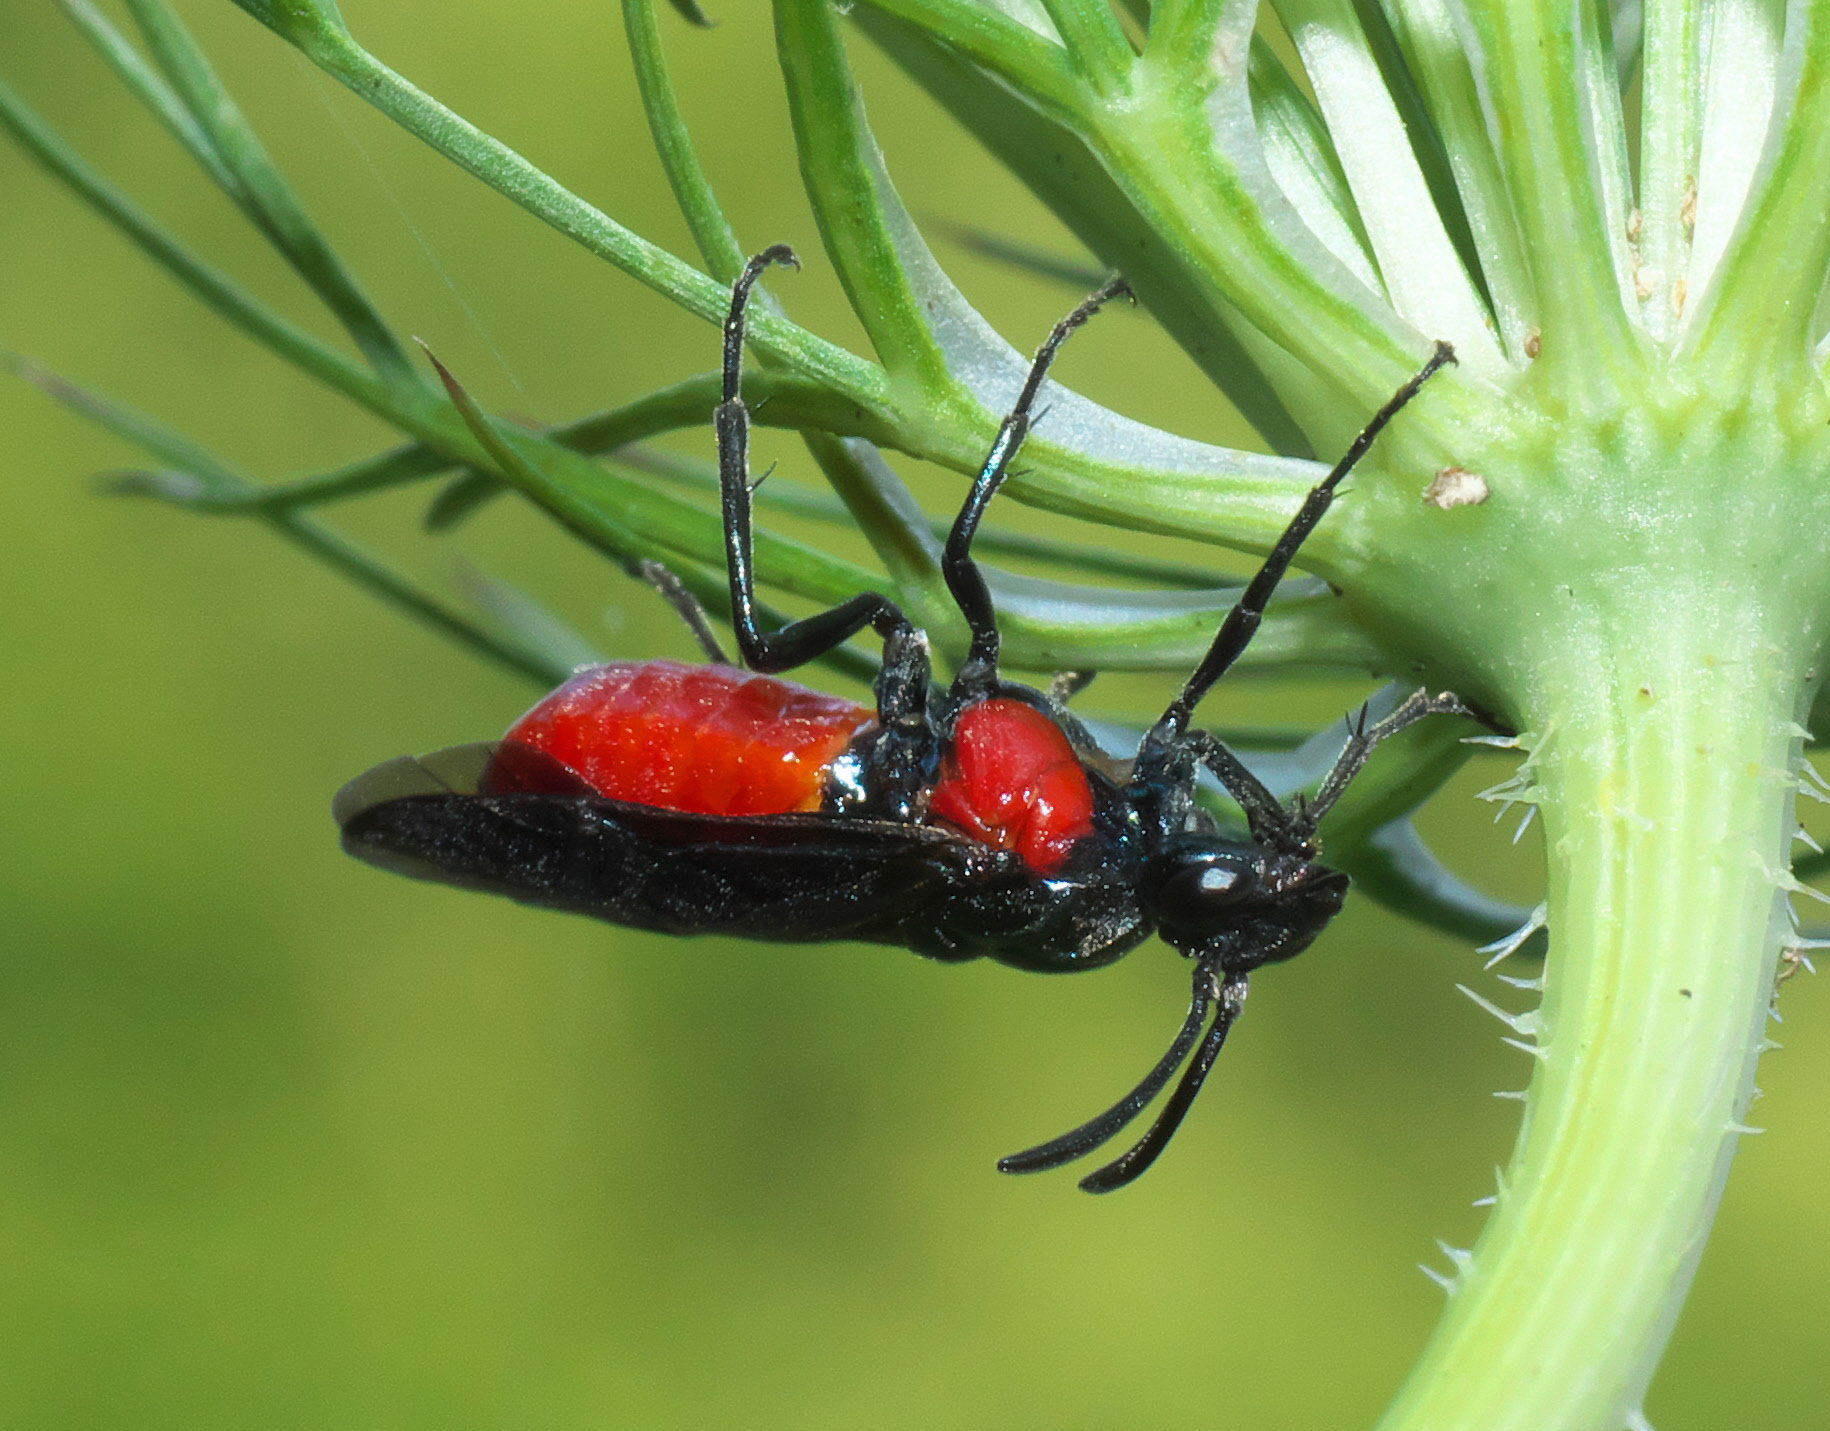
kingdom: Animalia
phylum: Arthropoda
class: Insecta
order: Hymenoptera
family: Argidae
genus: Arge
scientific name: Arge humeralis
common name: Poison ivy sawfly
